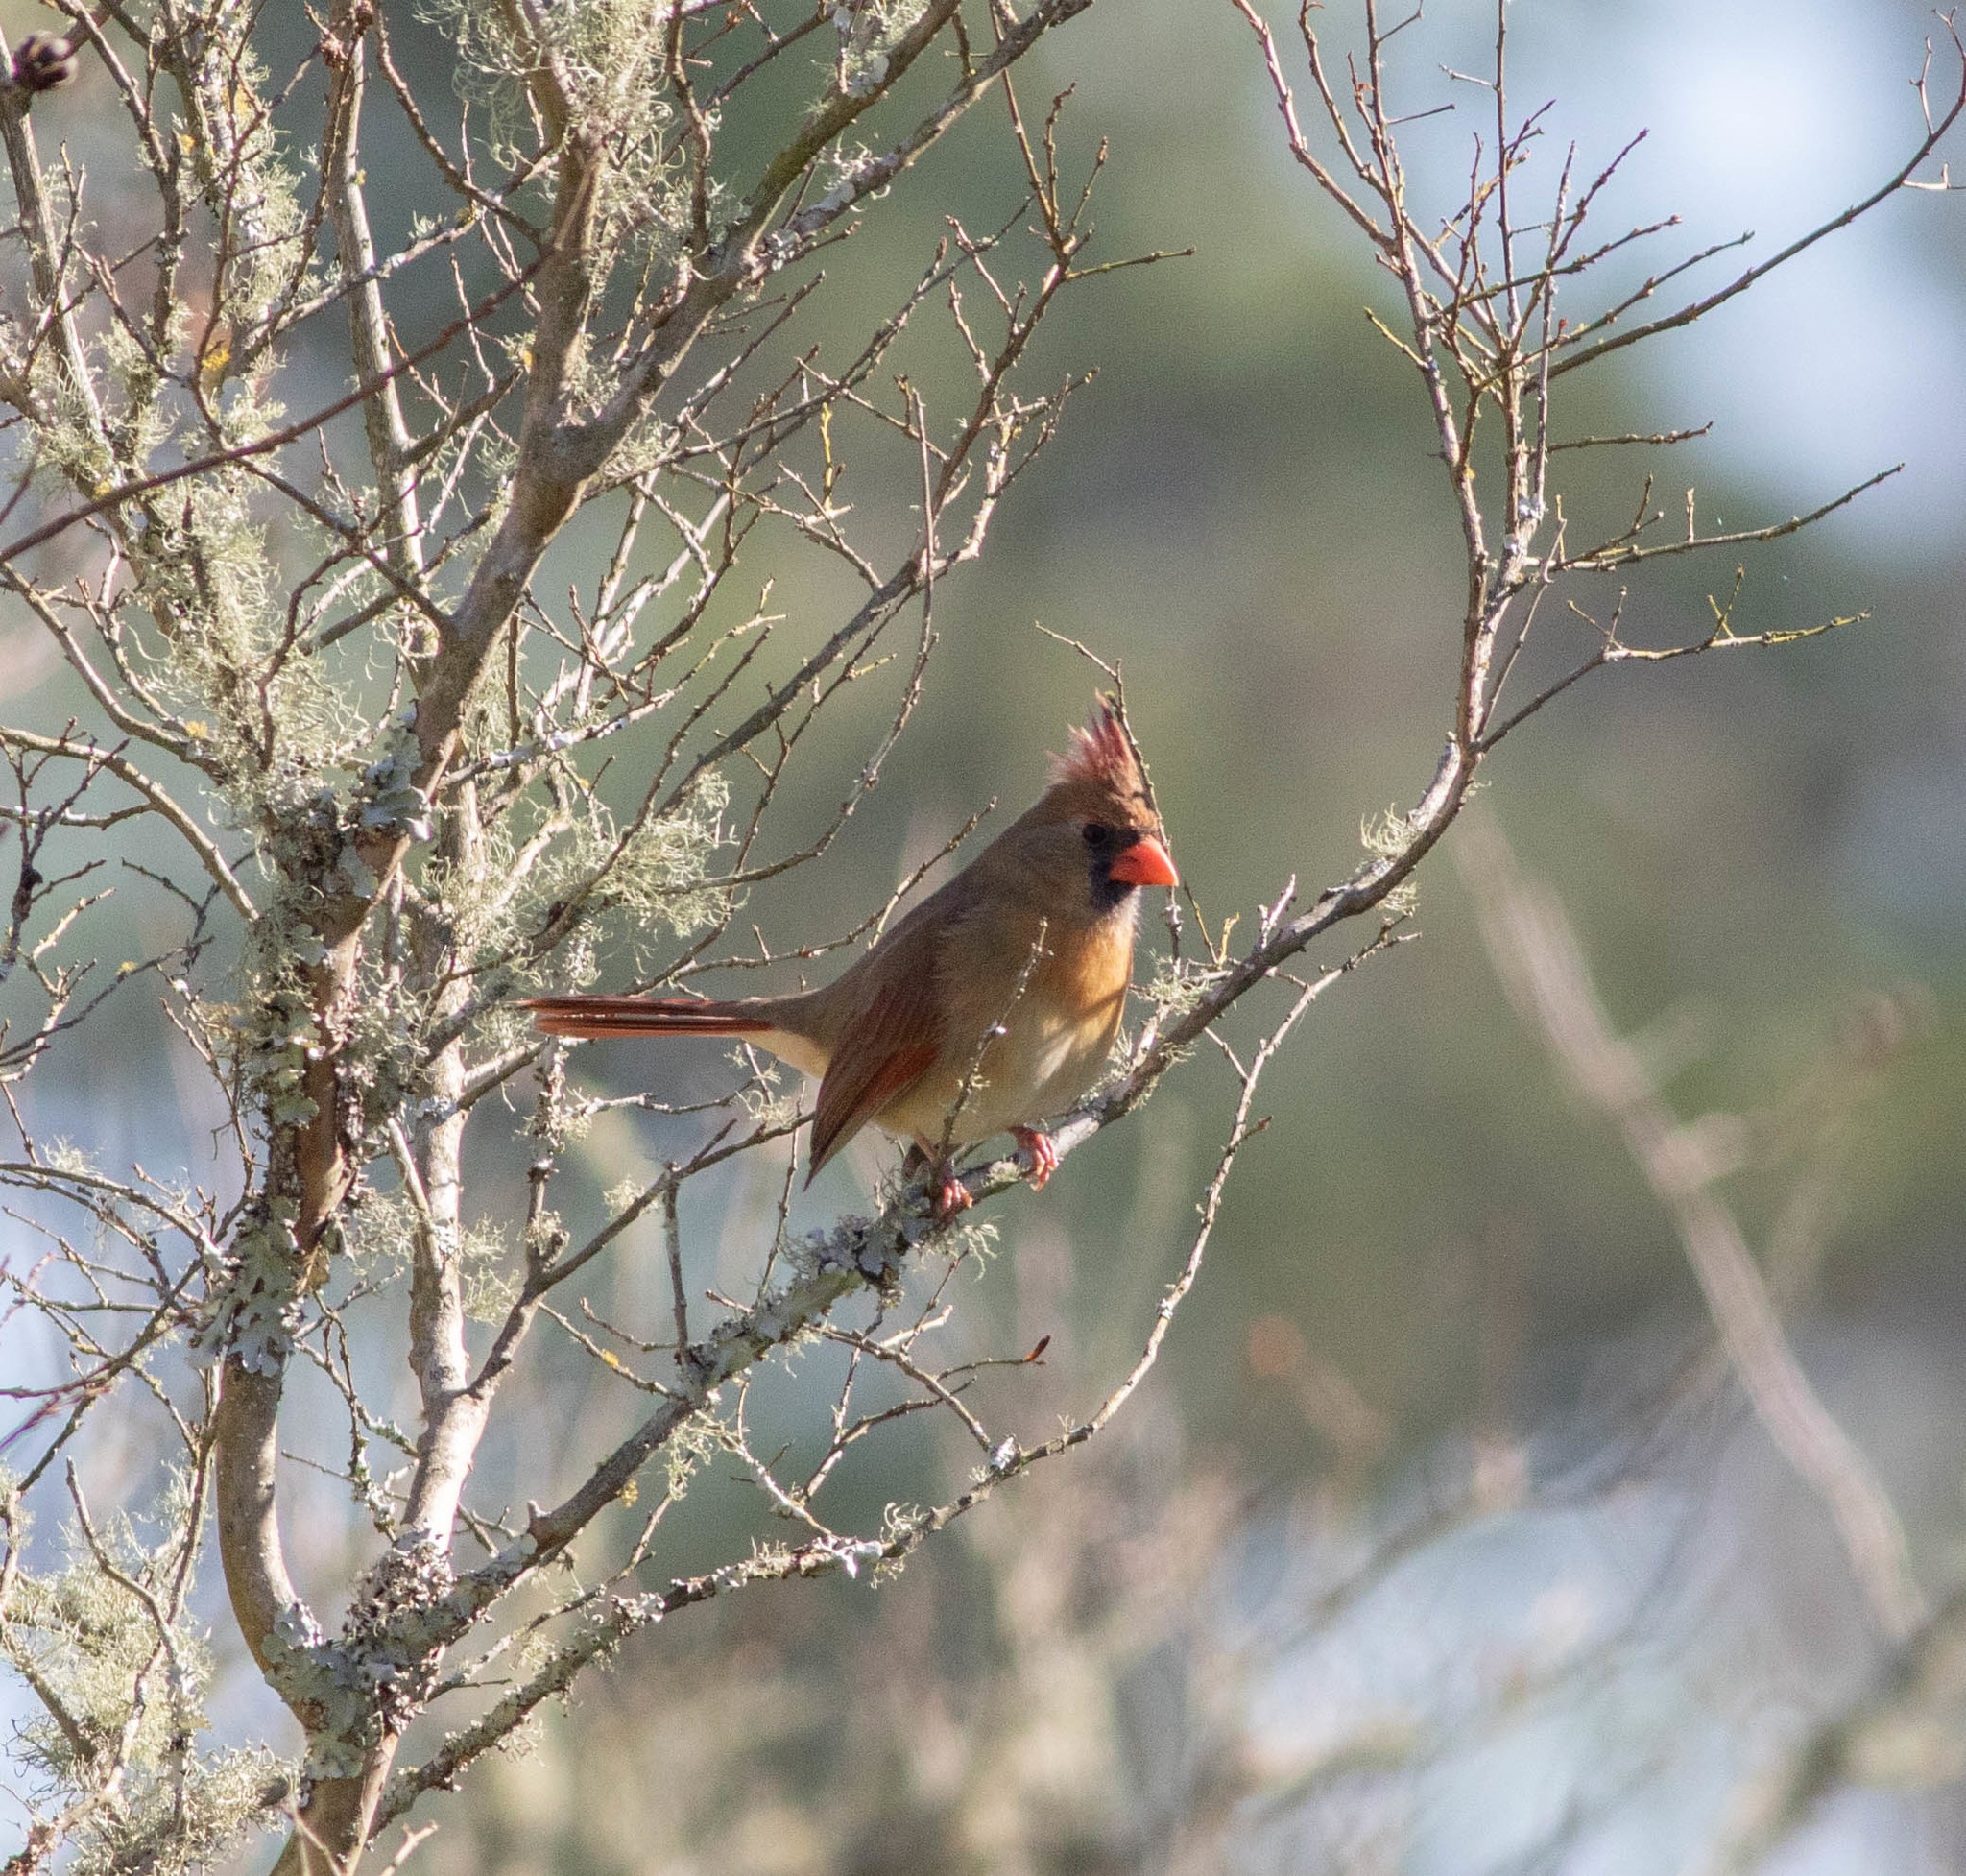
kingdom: Animalia
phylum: Chordata
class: Aves
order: Passeriformes
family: Cardinalidae
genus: Cardinalis
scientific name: Cardinalis cardinalis
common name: Northern cardinal
